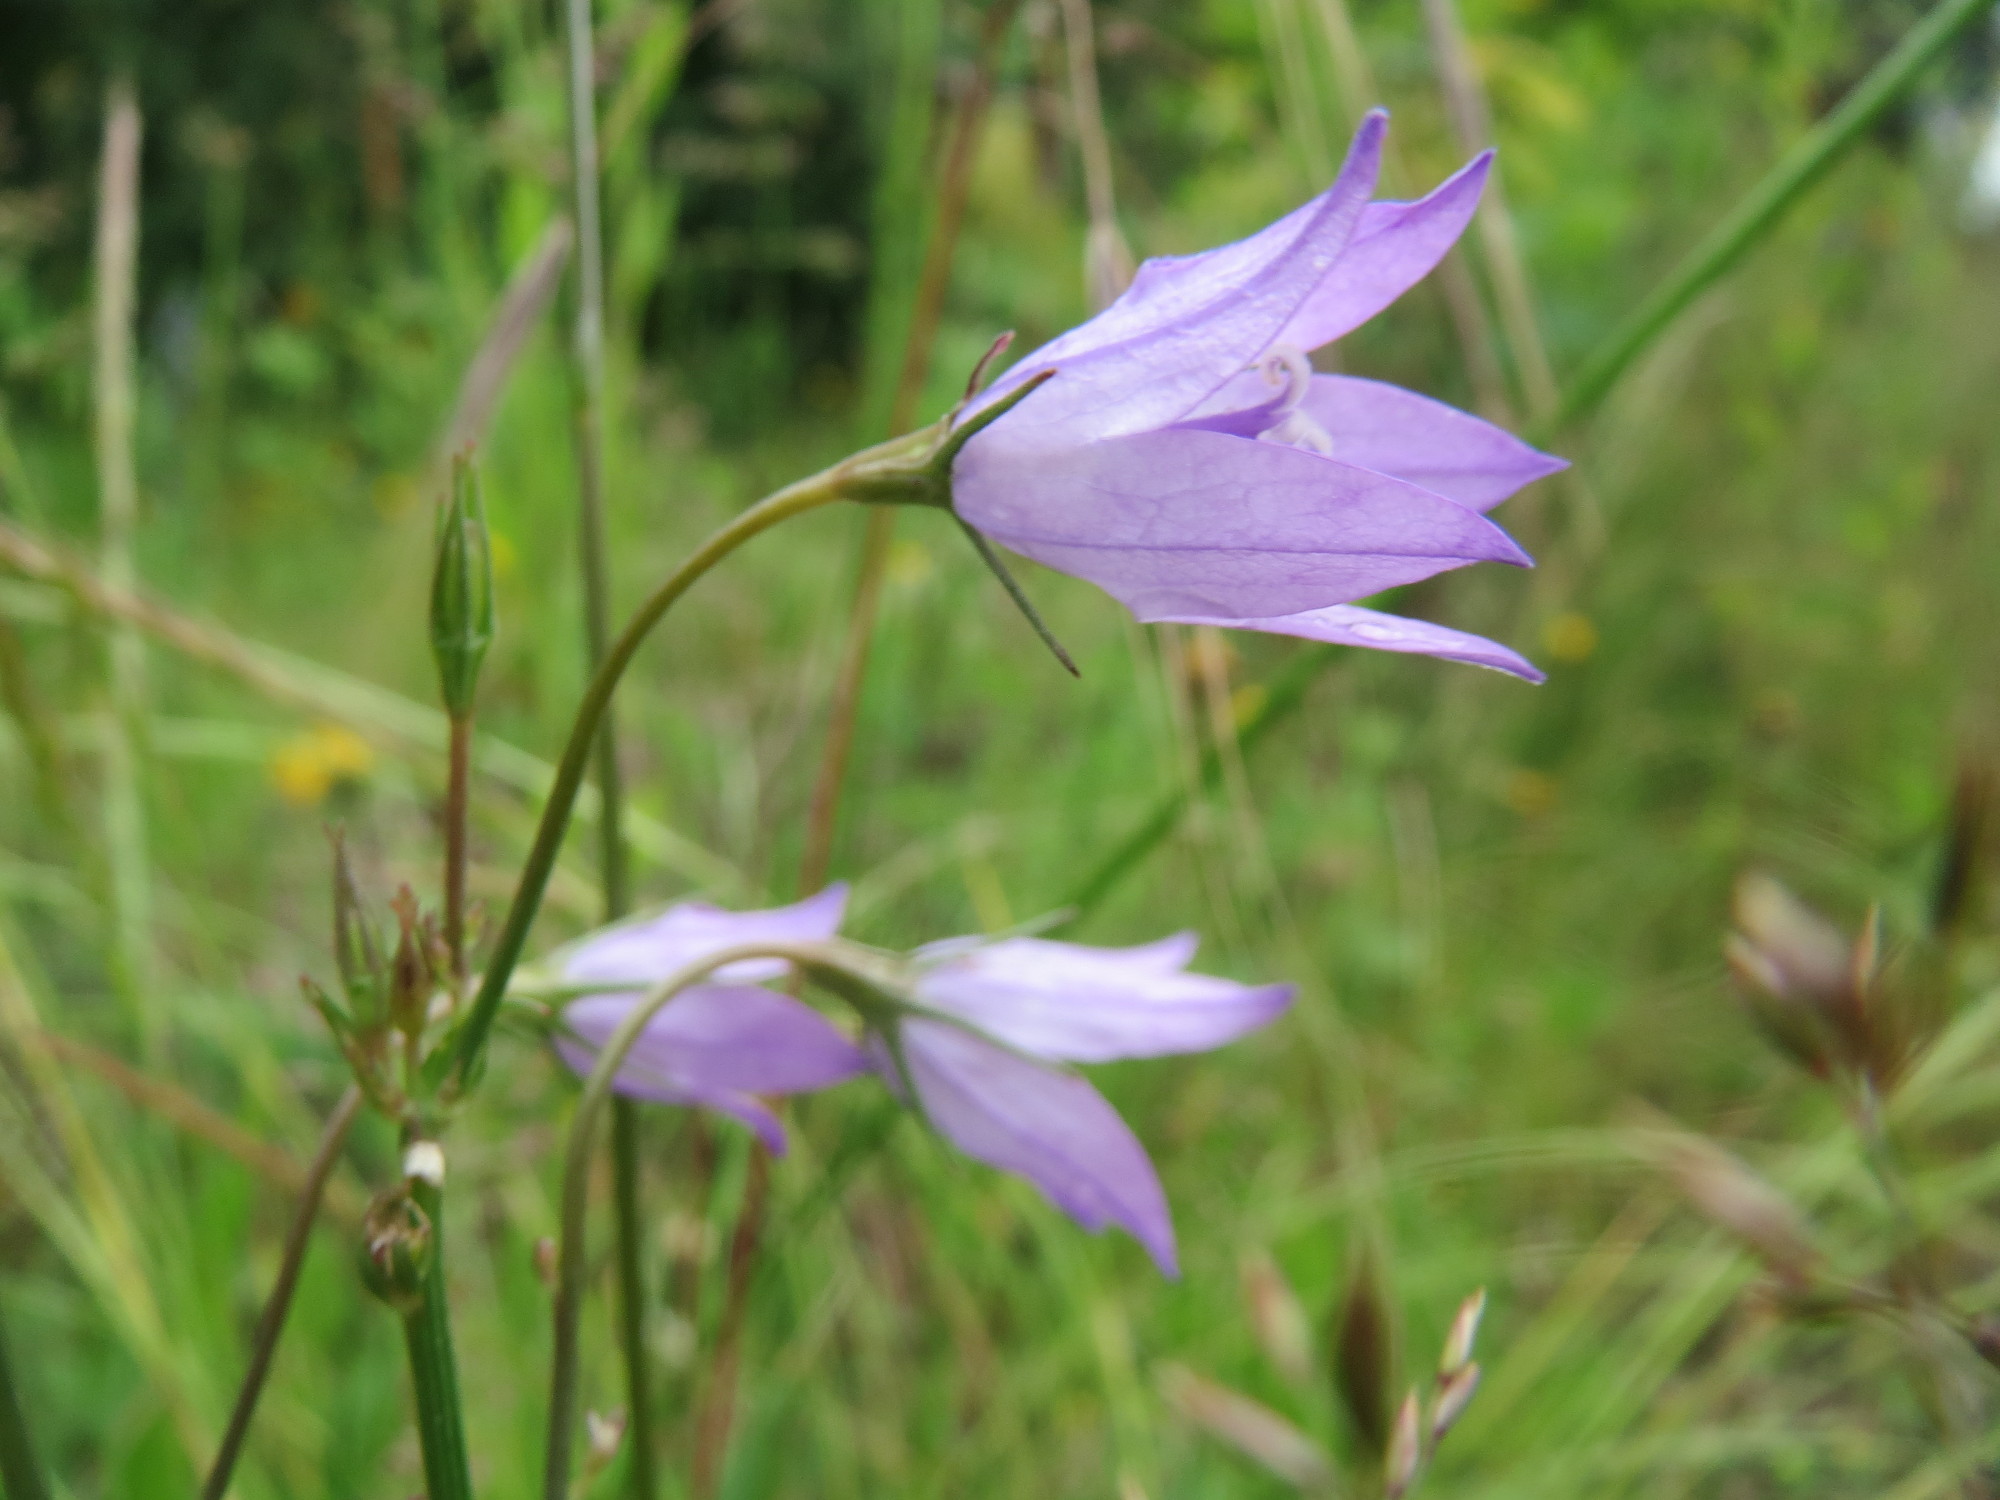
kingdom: Plantae
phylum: Tracheophyta
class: Magnoliopsida
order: Asterales
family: Campanulaceae
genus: Campanula
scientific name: Campanula rapunculus
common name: Rampion bellflower
